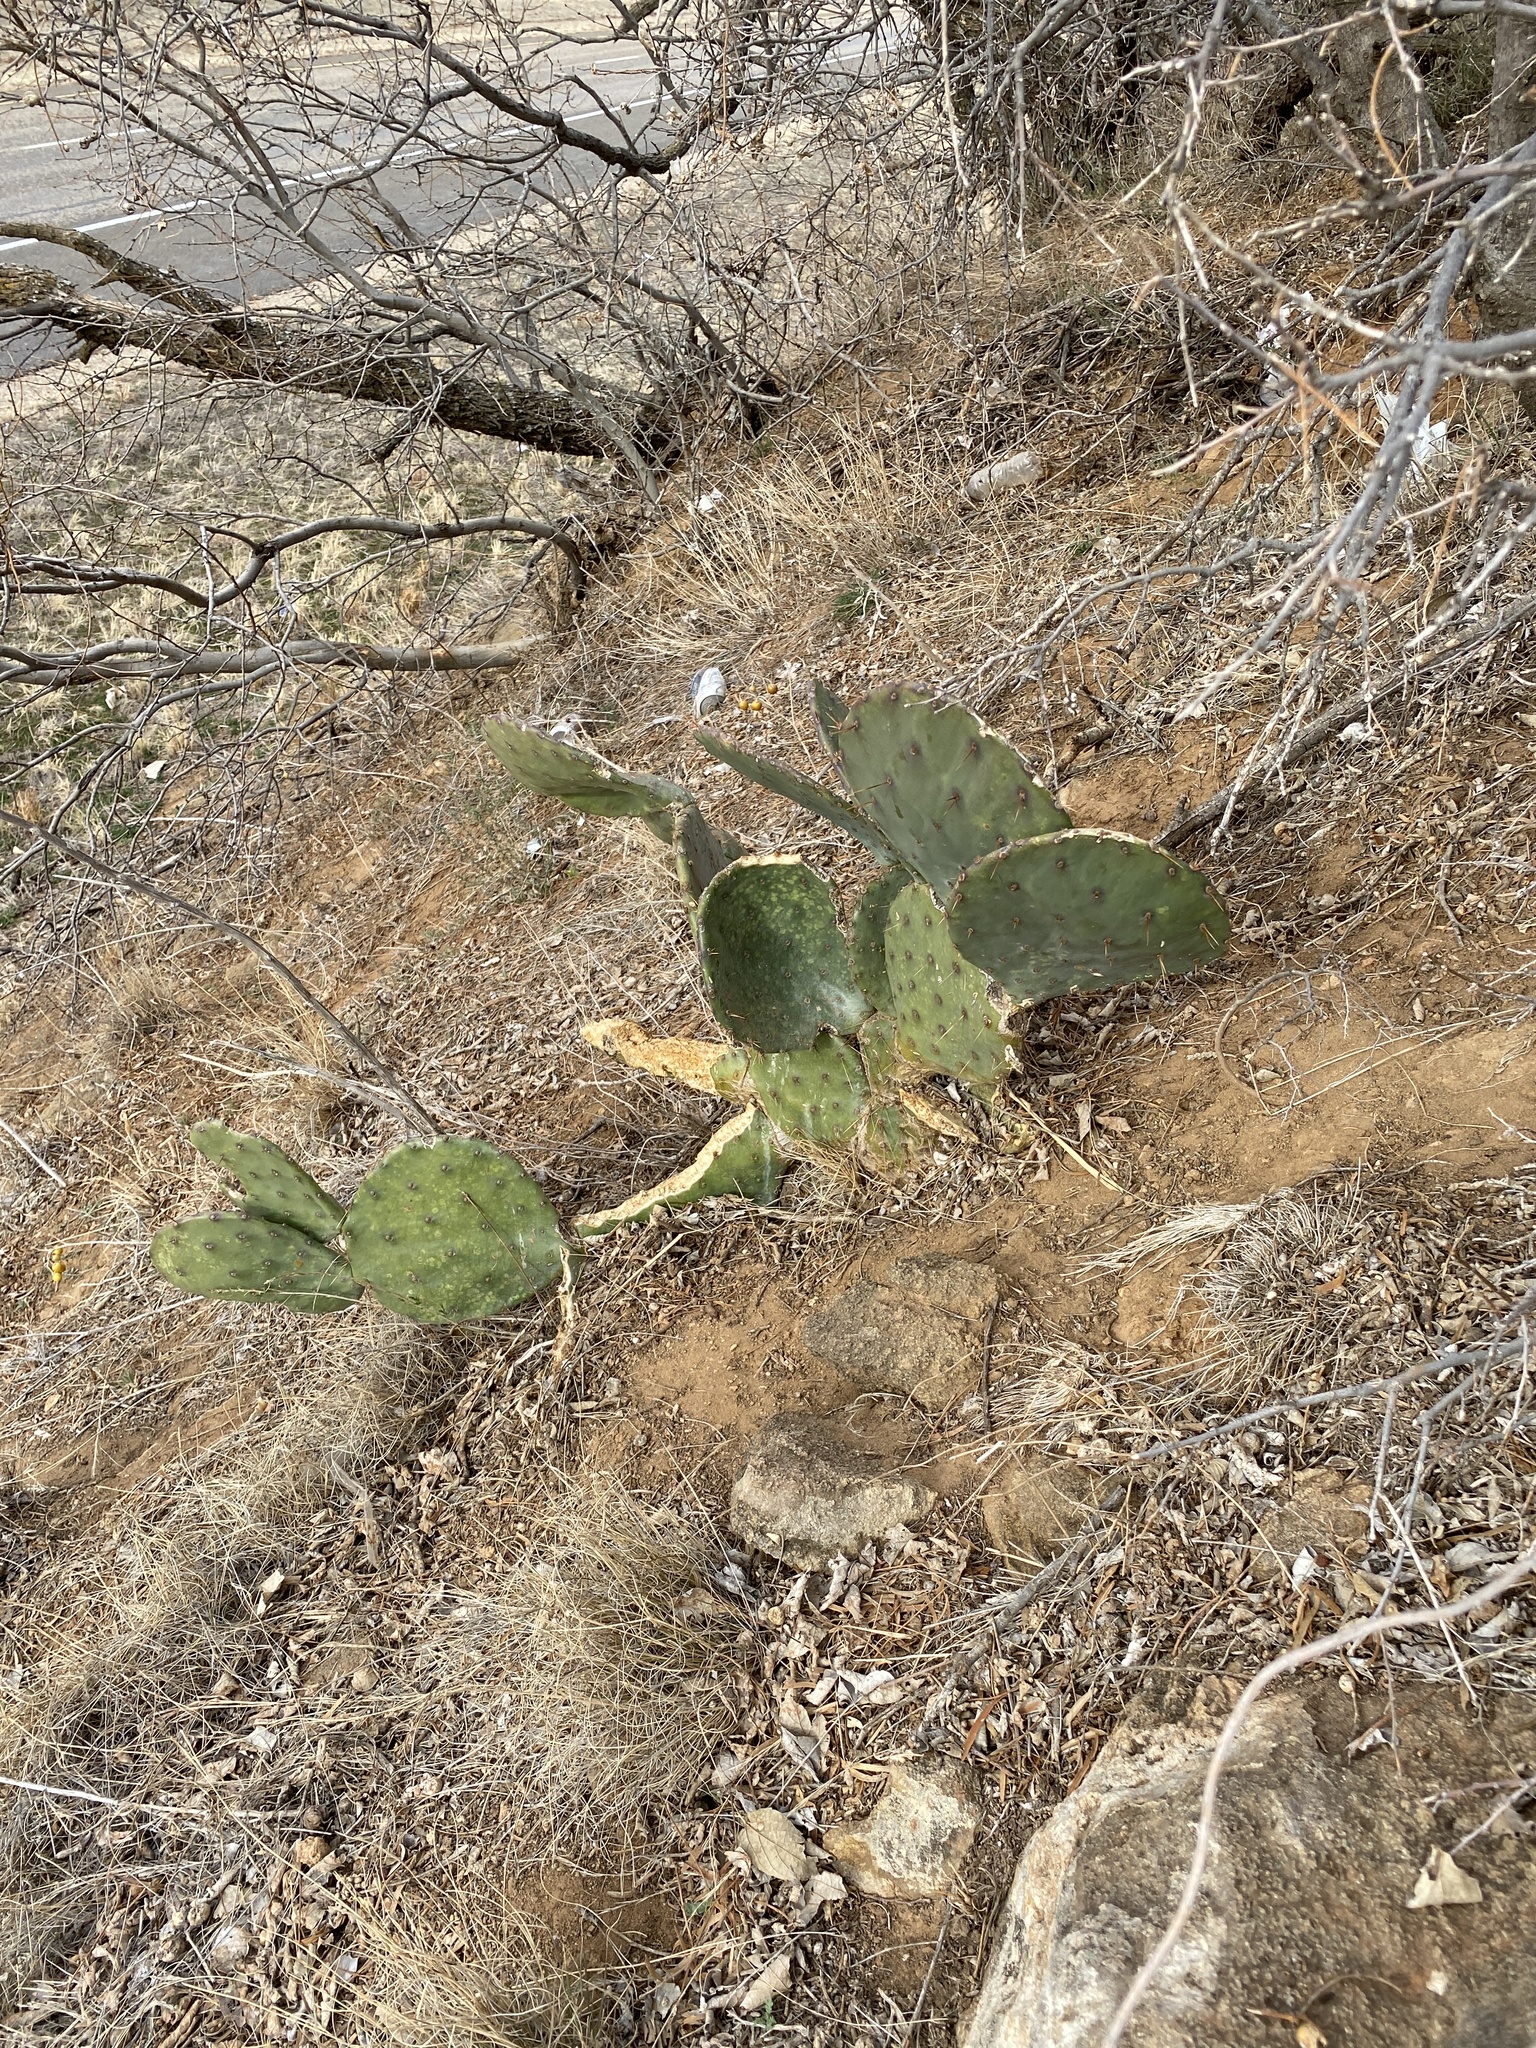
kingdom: Plantae
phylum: Tracheophyta
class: Magnoliopsida
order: Caryophyllales
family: Cactaceae
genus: Opuntia
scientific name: Opuntia orbiculata
